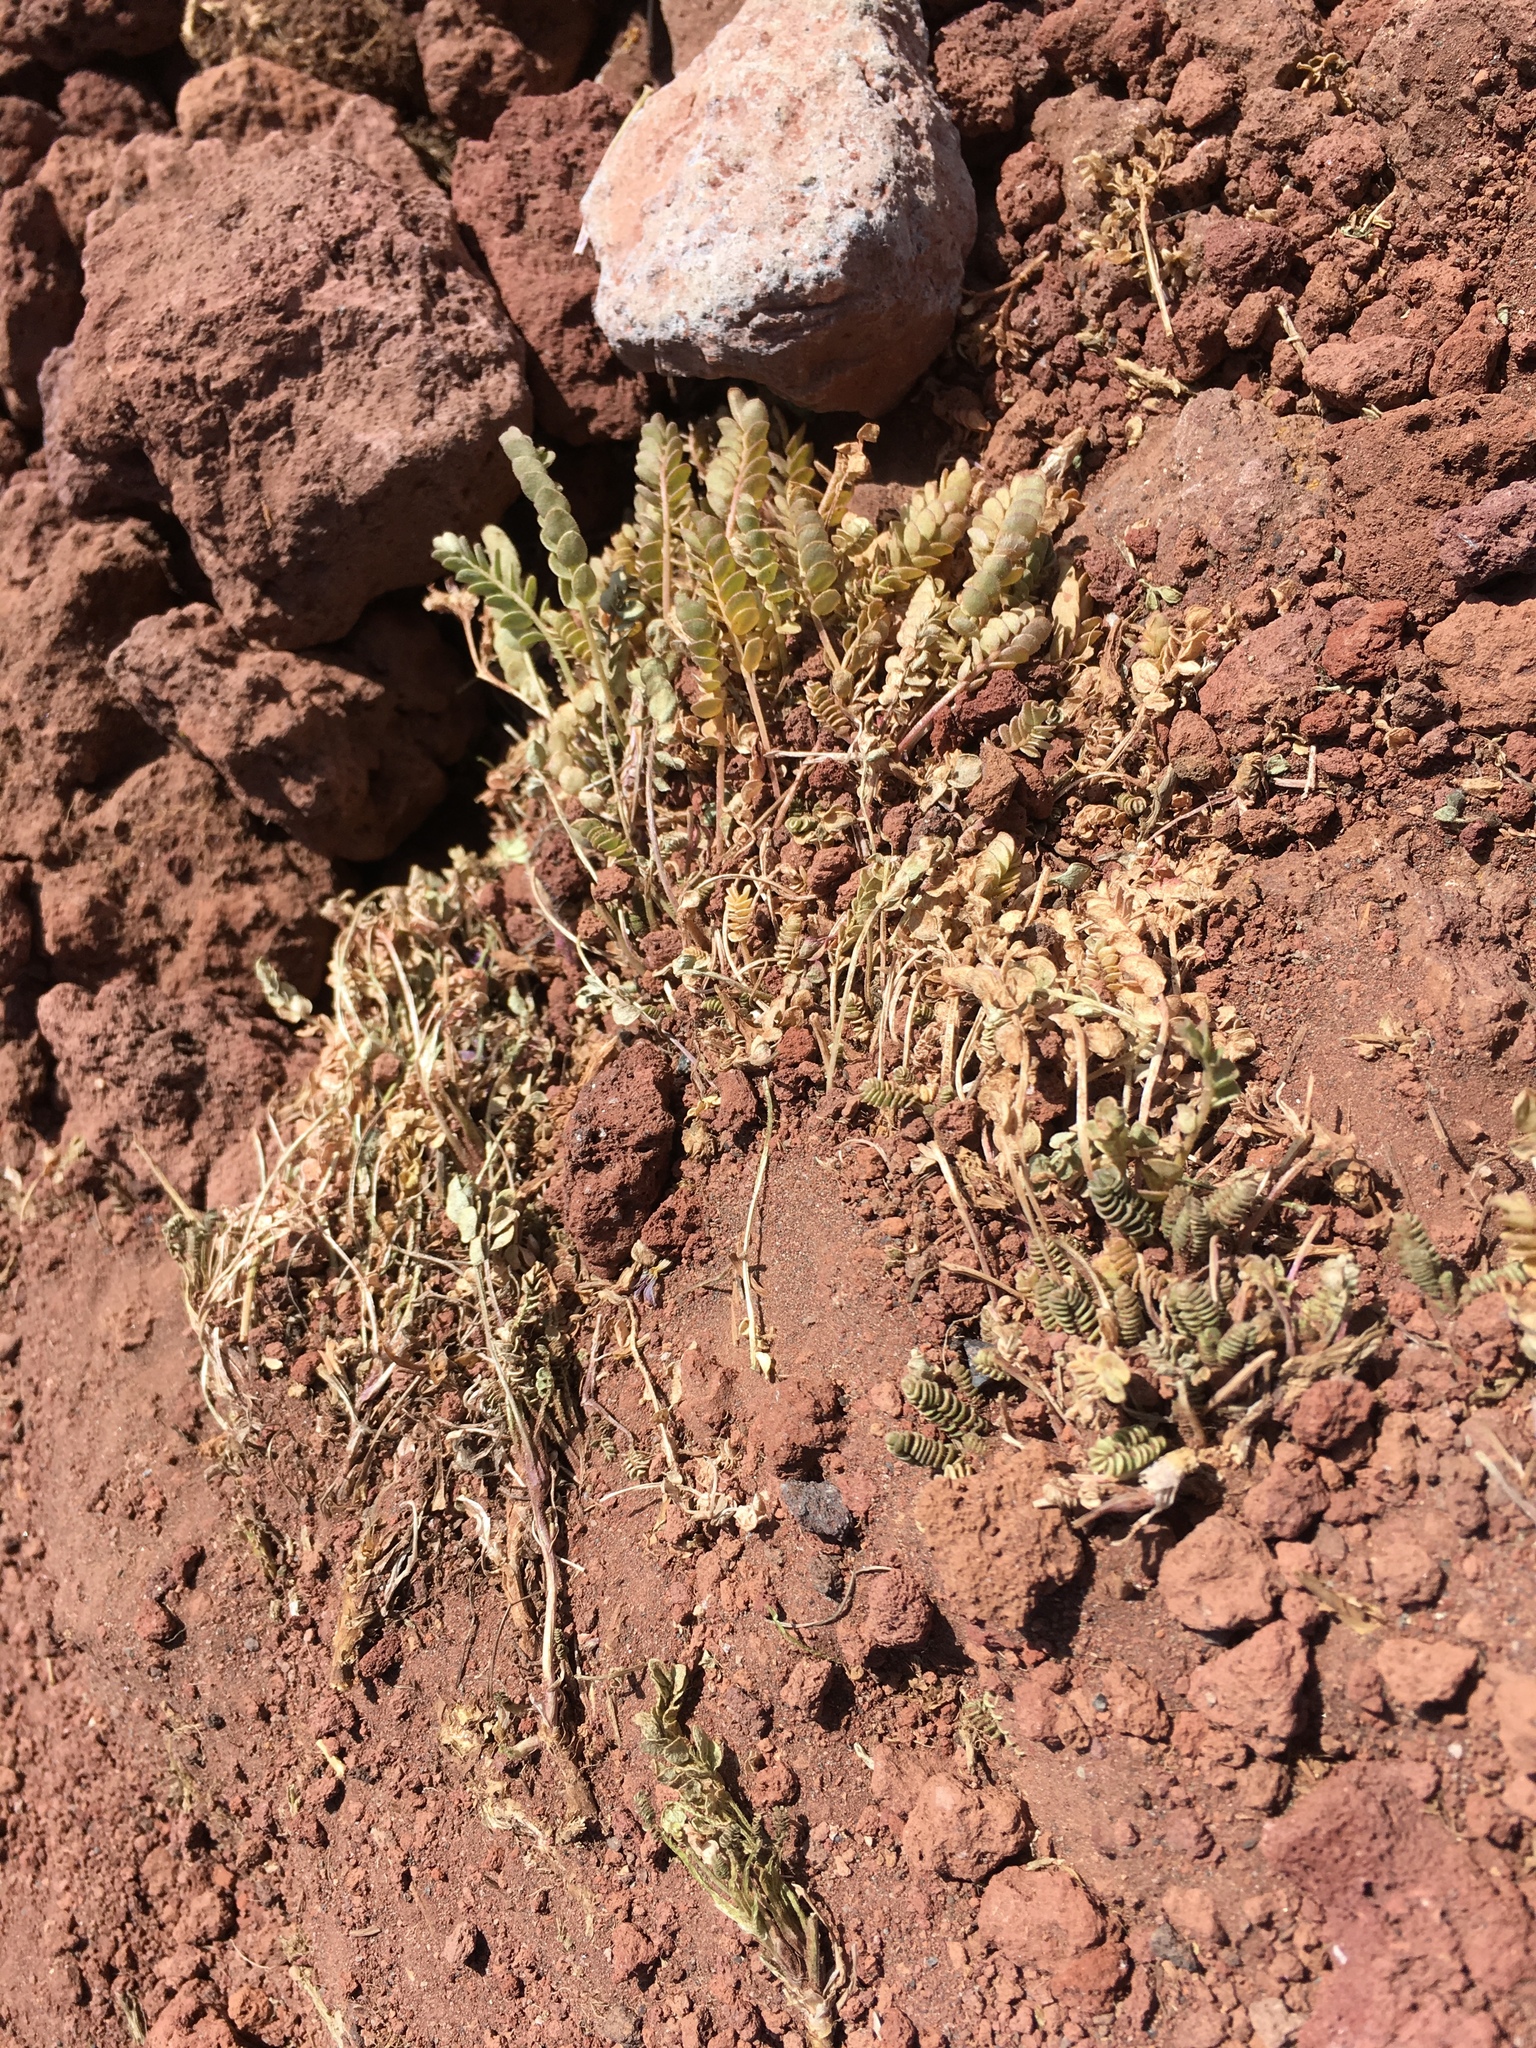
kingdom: Plantae
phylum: Tracheophyta
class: Magnoliopsida
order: Ericales
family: Polemoniaceae
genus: Polemonium
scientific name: Polemonium pulcherrimum
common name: Short jacob's-ladder
